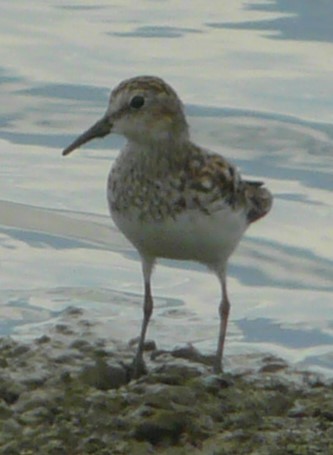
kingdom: Animalia
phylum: Chordata
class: Aves
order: Charadriiformes
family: Scolopacidae
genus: Calidris
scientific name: Calidris minutilla
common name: Least sandpiper
